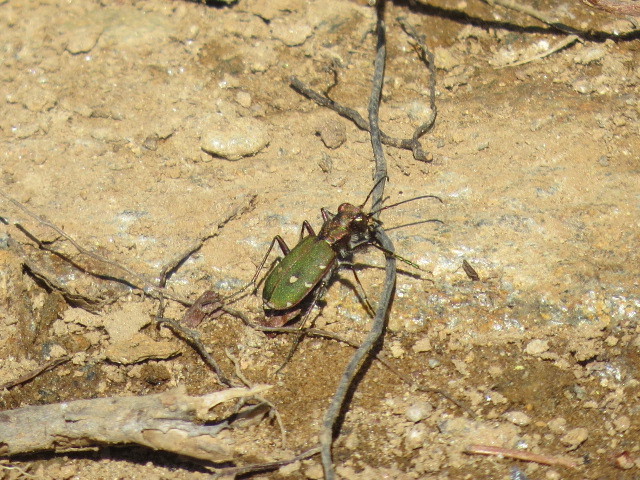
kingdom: Animalia
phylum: Arthropoda
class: Insecta
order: Coleoptera
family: Carabidae
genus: Cicindela
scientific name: Cicindela campestris
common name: Common tiger beetle
